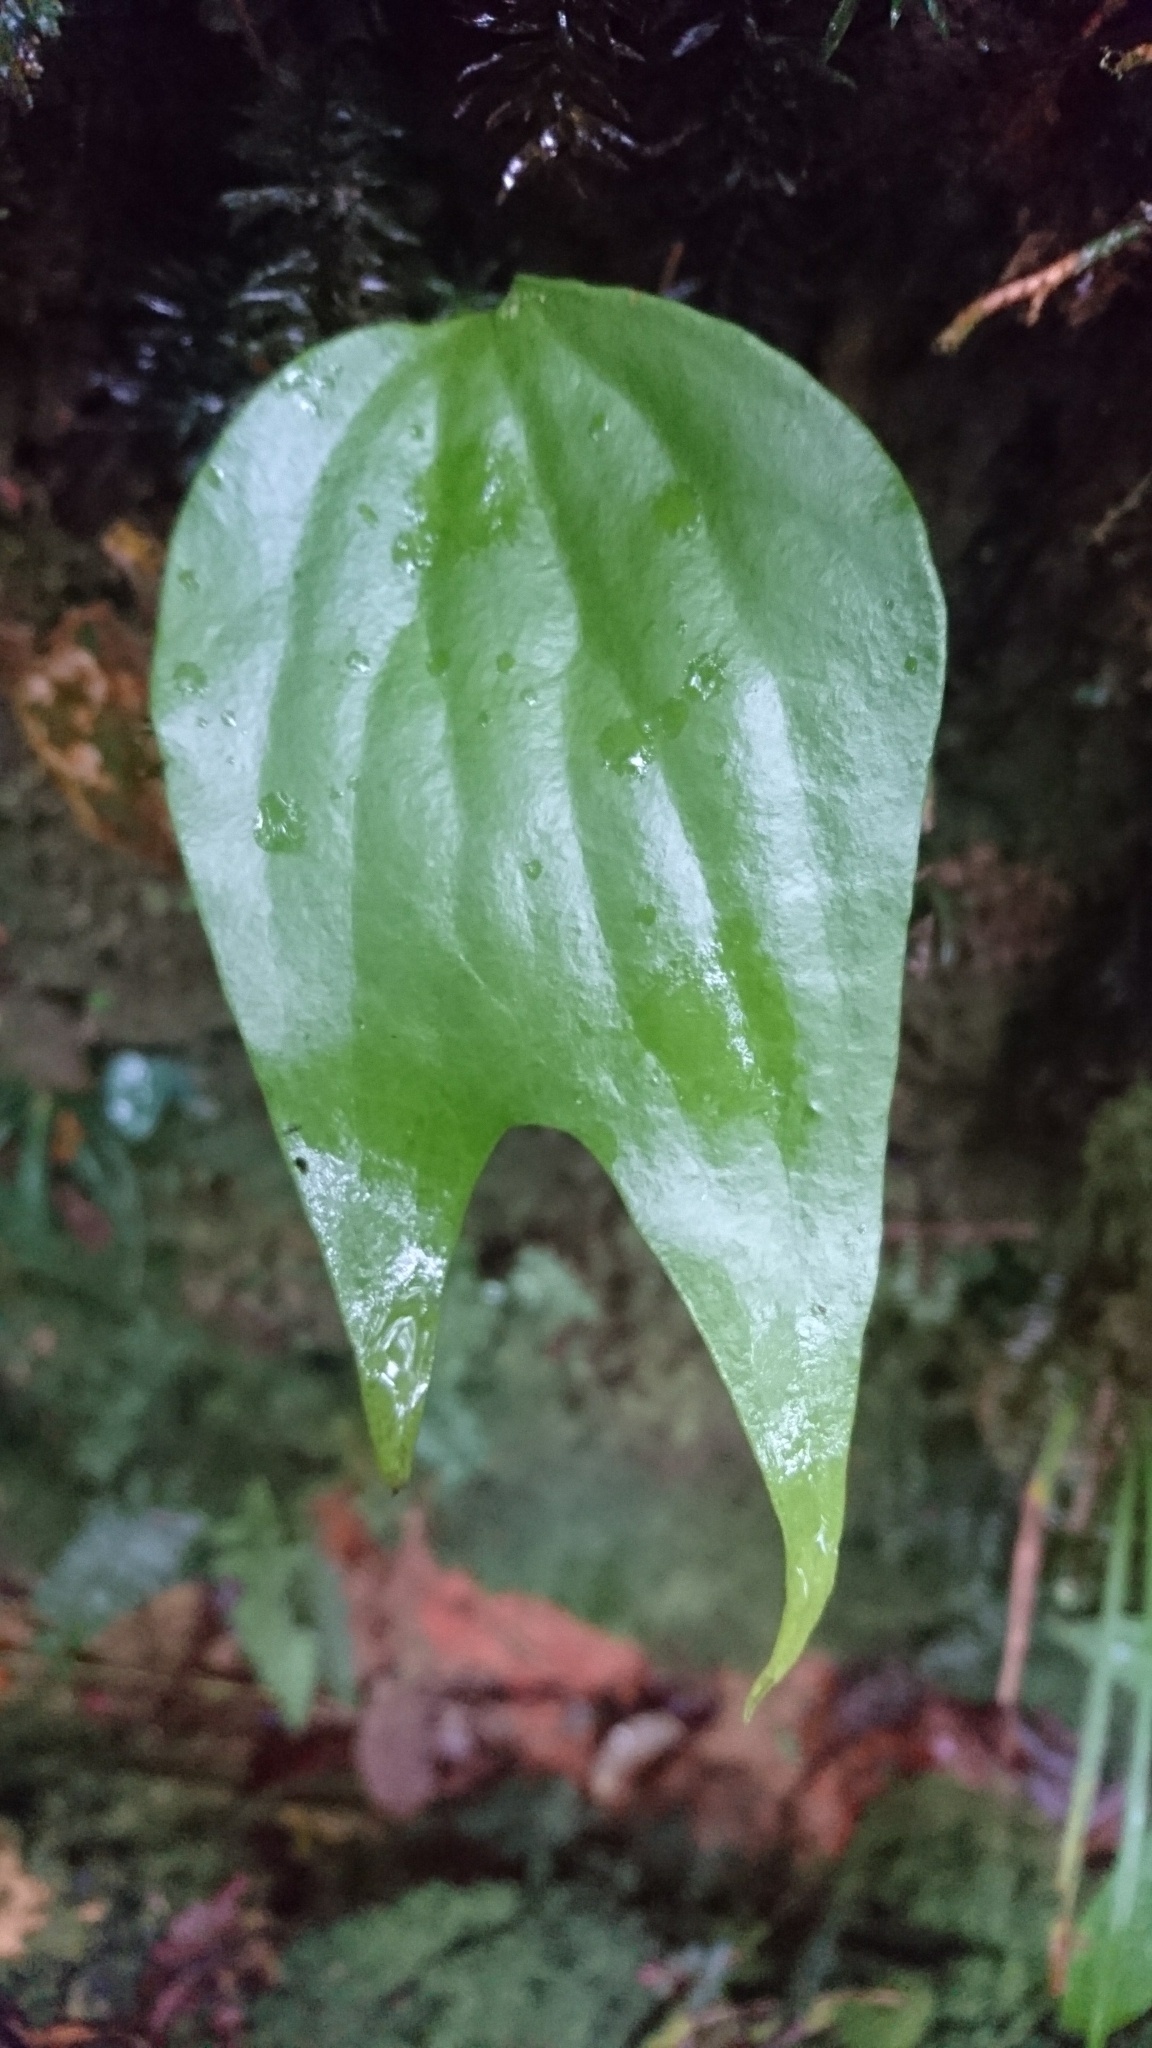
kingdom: Plantae
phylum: Tracheophyta
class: Polypodiopsida
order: Gleicheniales
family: Dipteridaceae
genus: Cheiropleuria
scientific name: Cheiropleuria bicuspis
